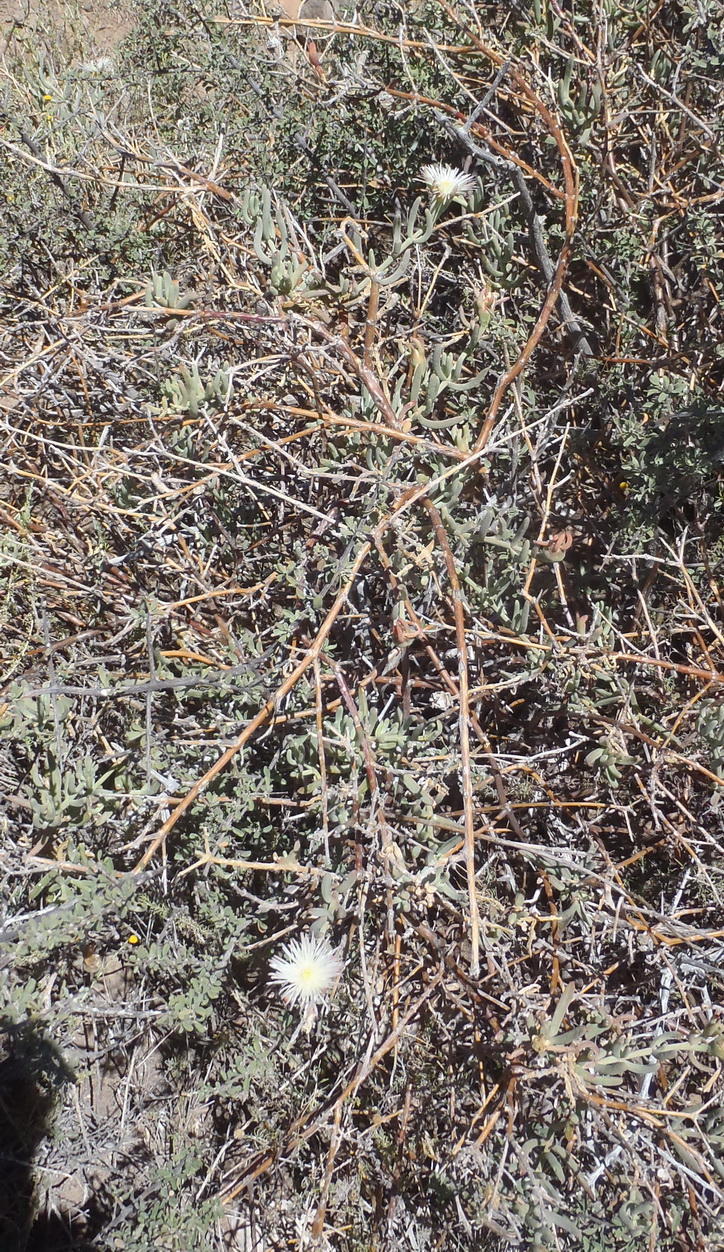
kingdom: Plantae
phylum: Tracheophyta
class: Magnoliopsida
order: Caryophyllales
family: Aizoaceae
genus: Mesembryanthemum
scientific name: Mesembryanthemum splendens
